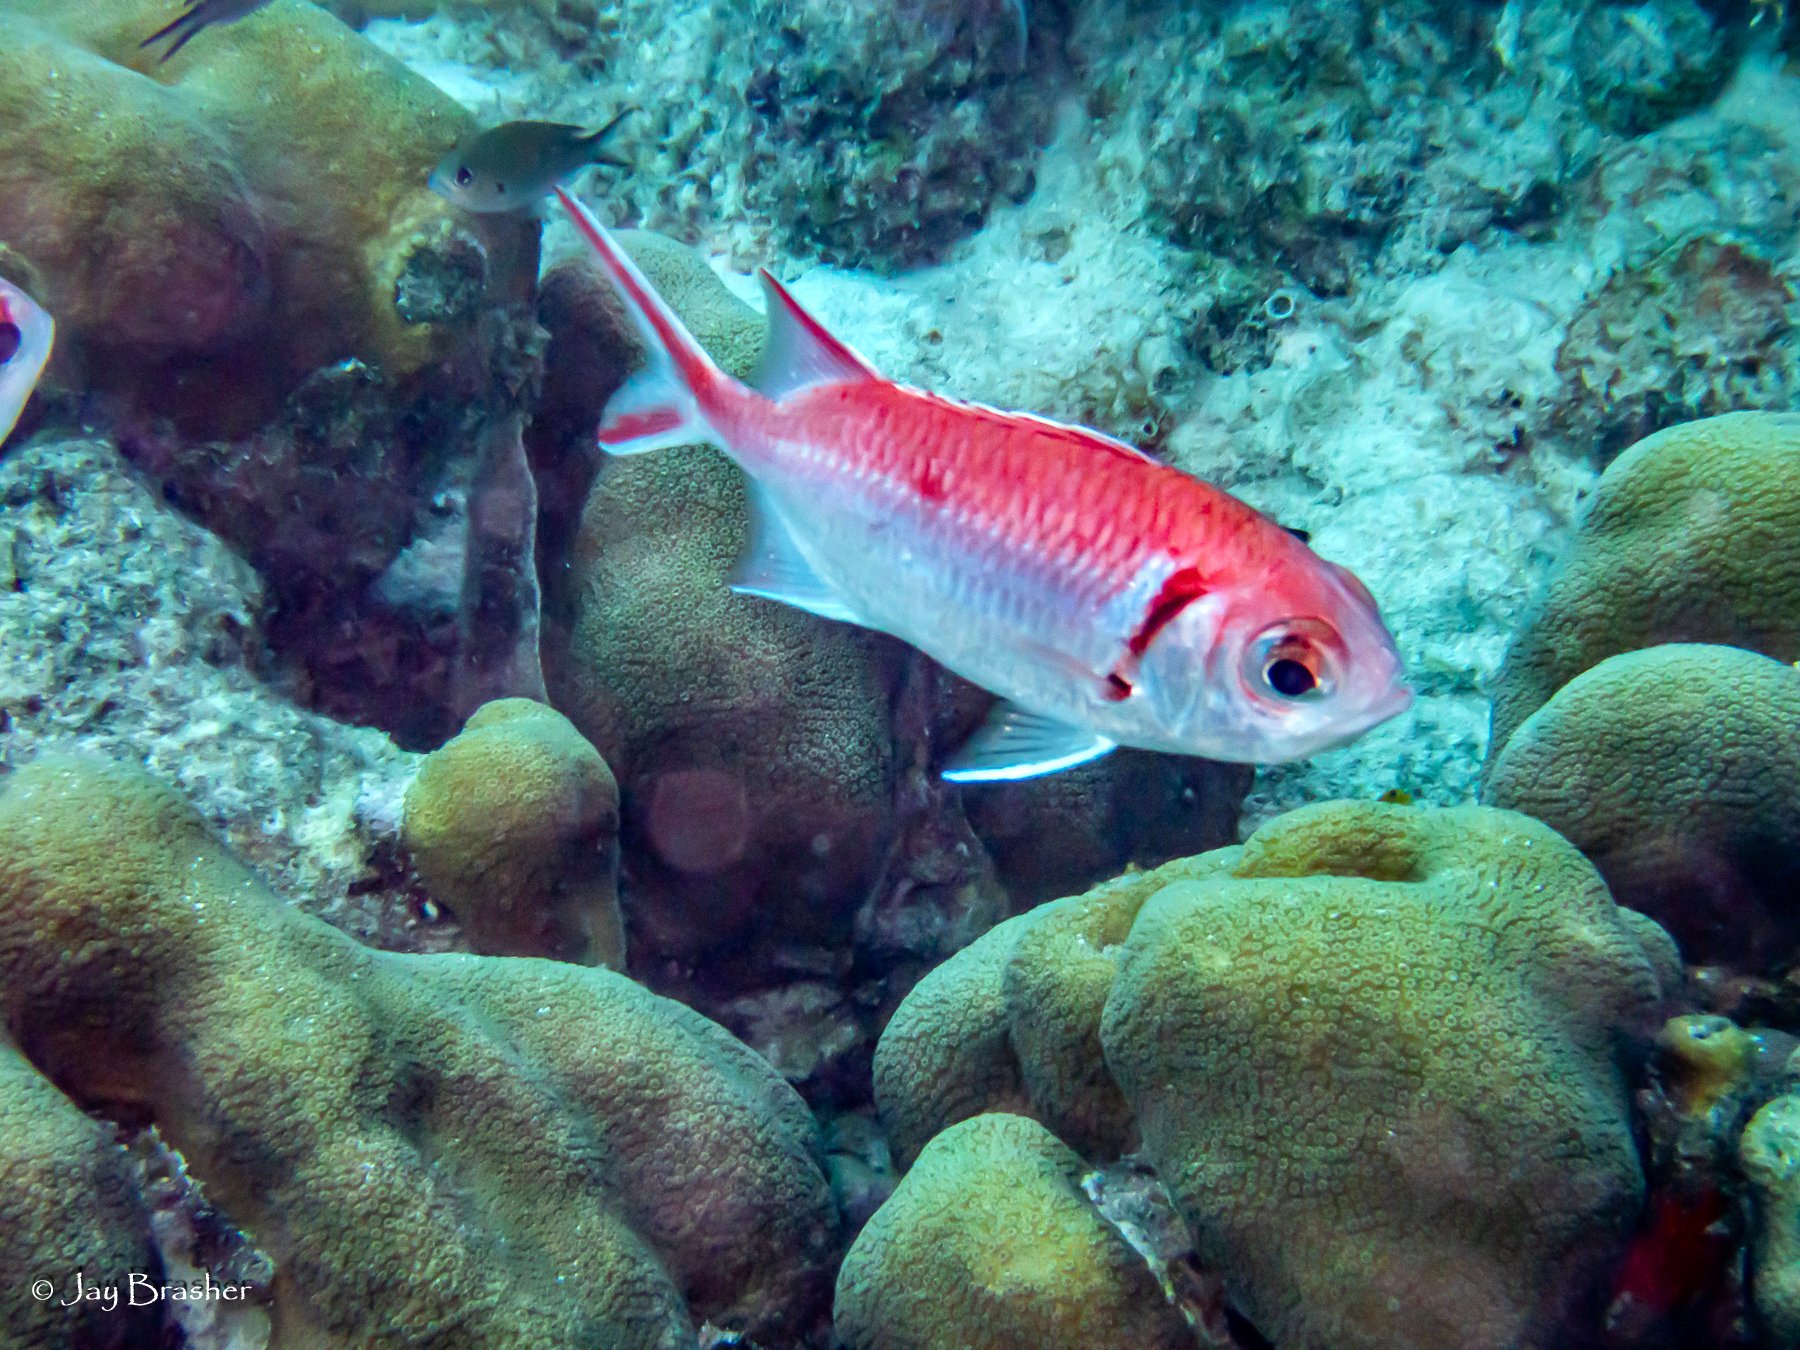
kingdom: Animalia
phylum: Chordata
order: Beryciformes
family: Holocentridae
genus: Myripristis
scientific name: Myripristis jacobus
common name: Blackbar soldierfish
